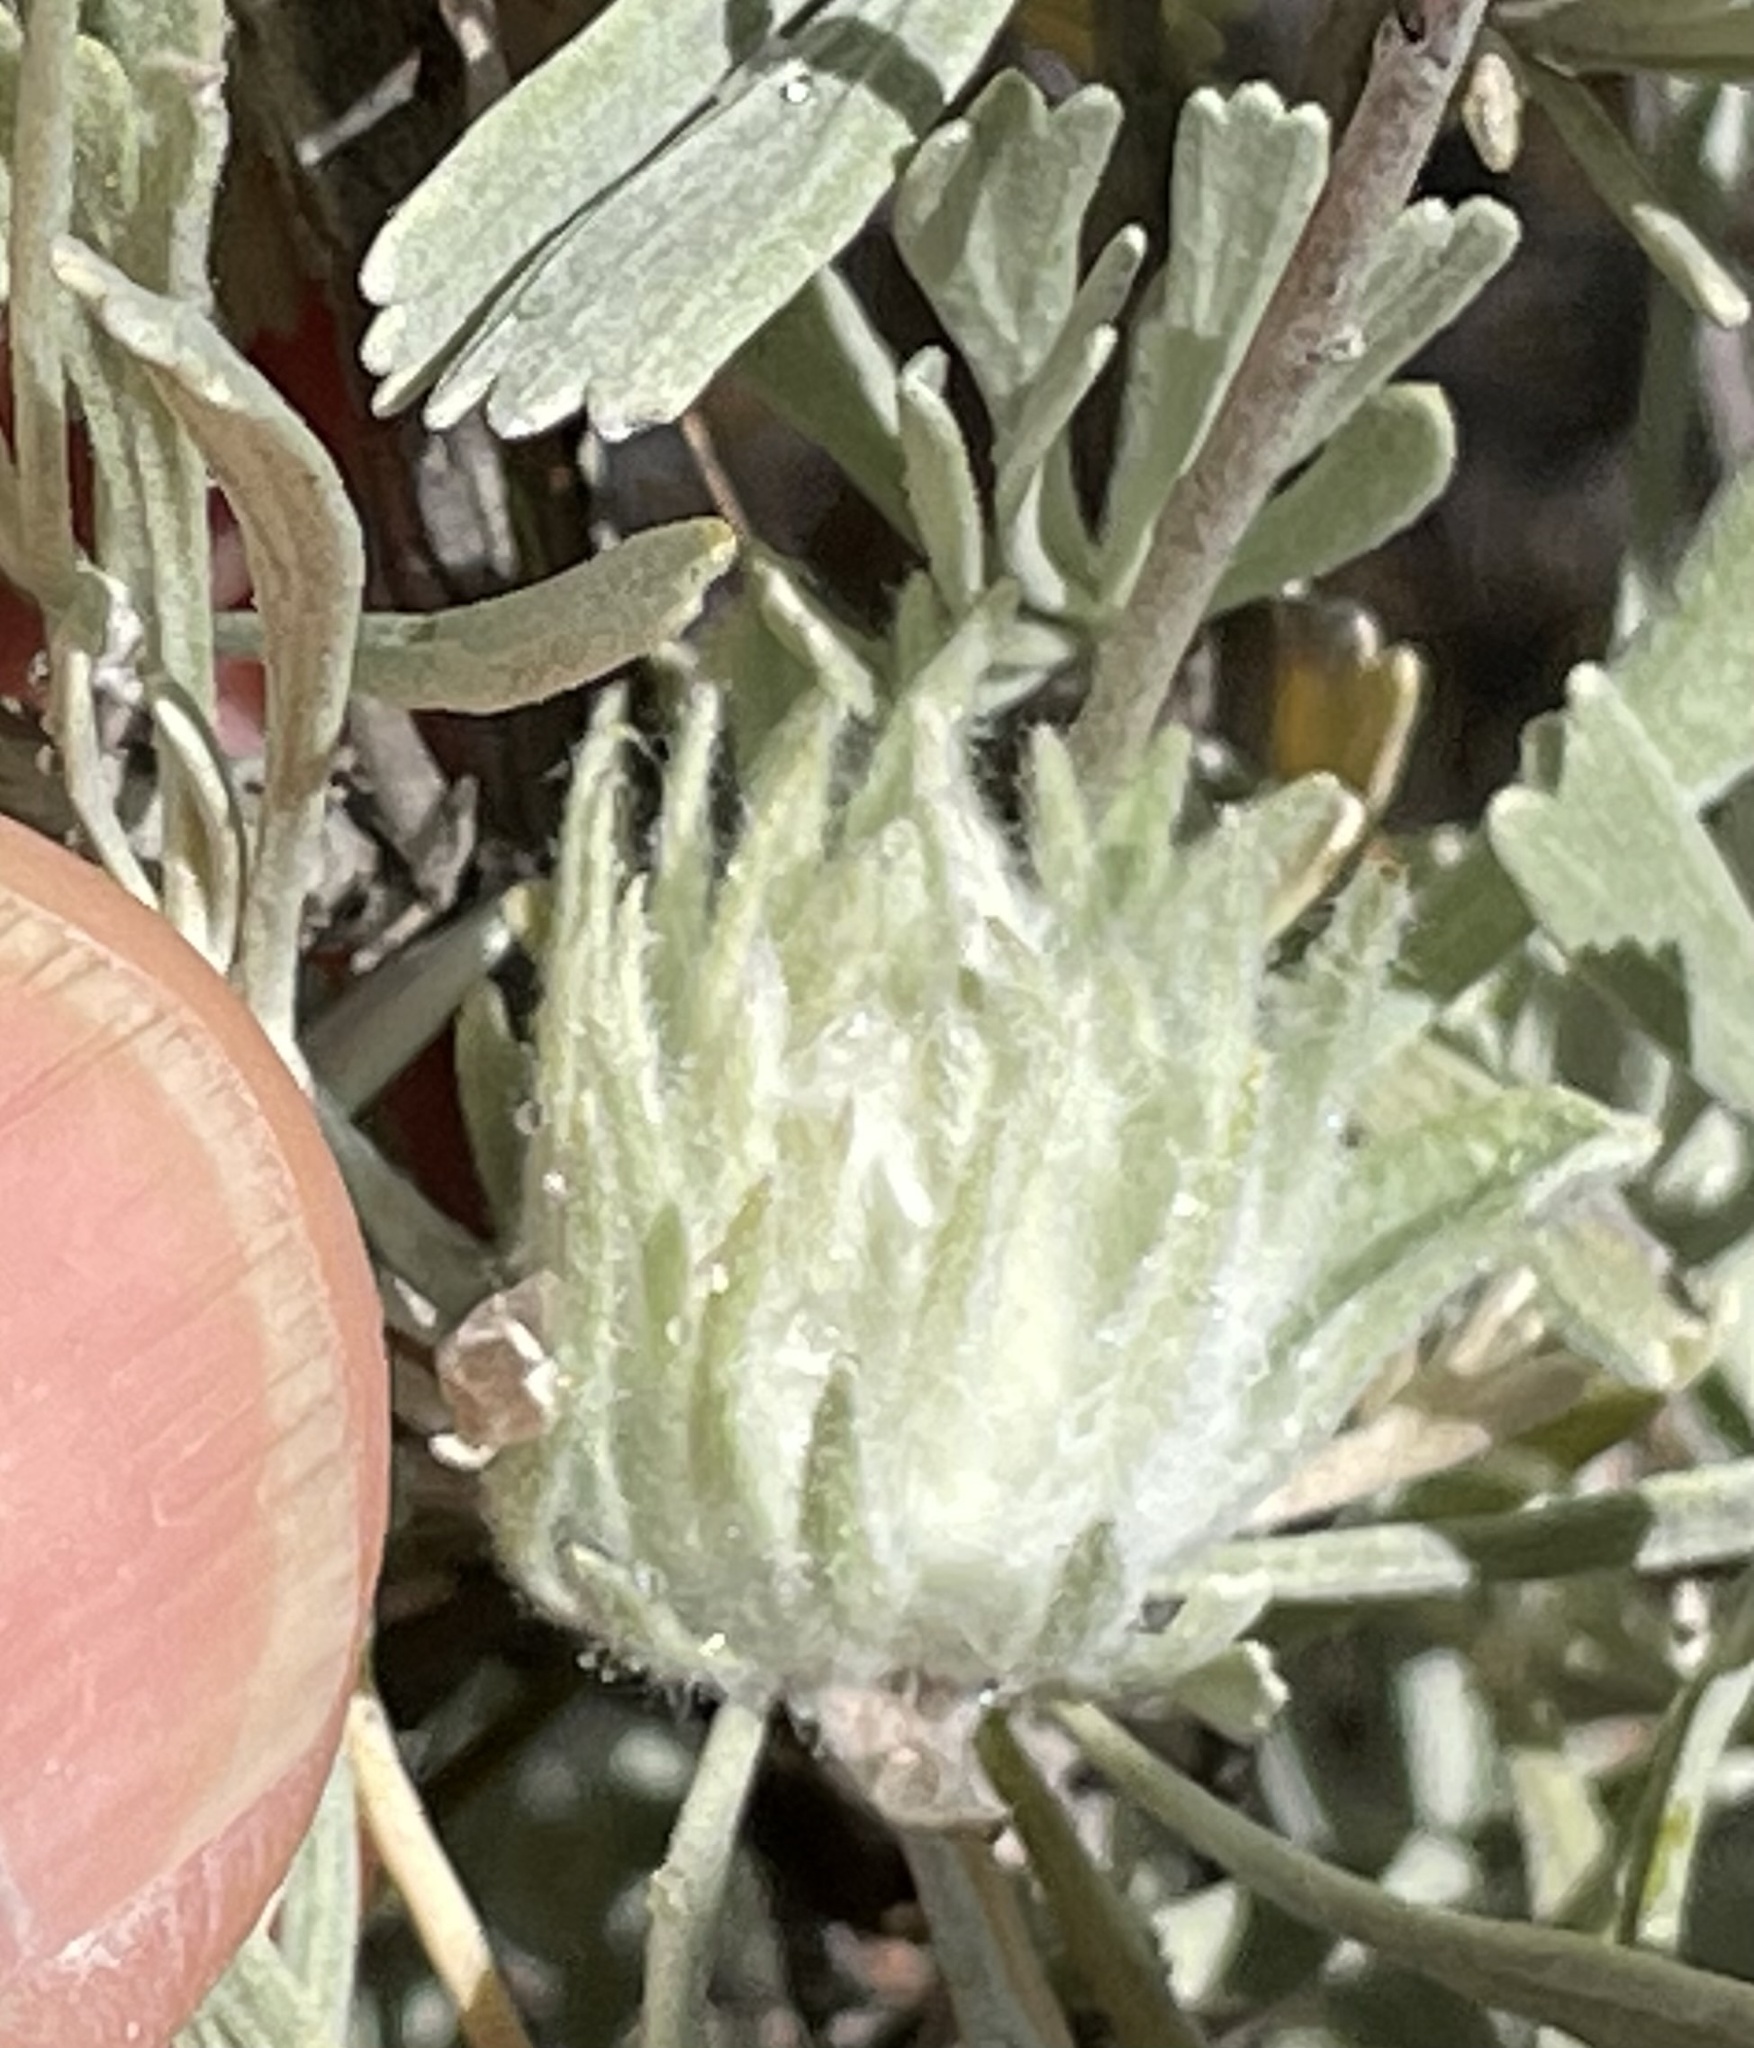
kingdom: Animalia
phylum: Arthropoda
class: Insecta
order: Diptera
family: Cecidomyiidae
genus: Rhopalomyia
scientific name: Rhopalomyia anthoides
